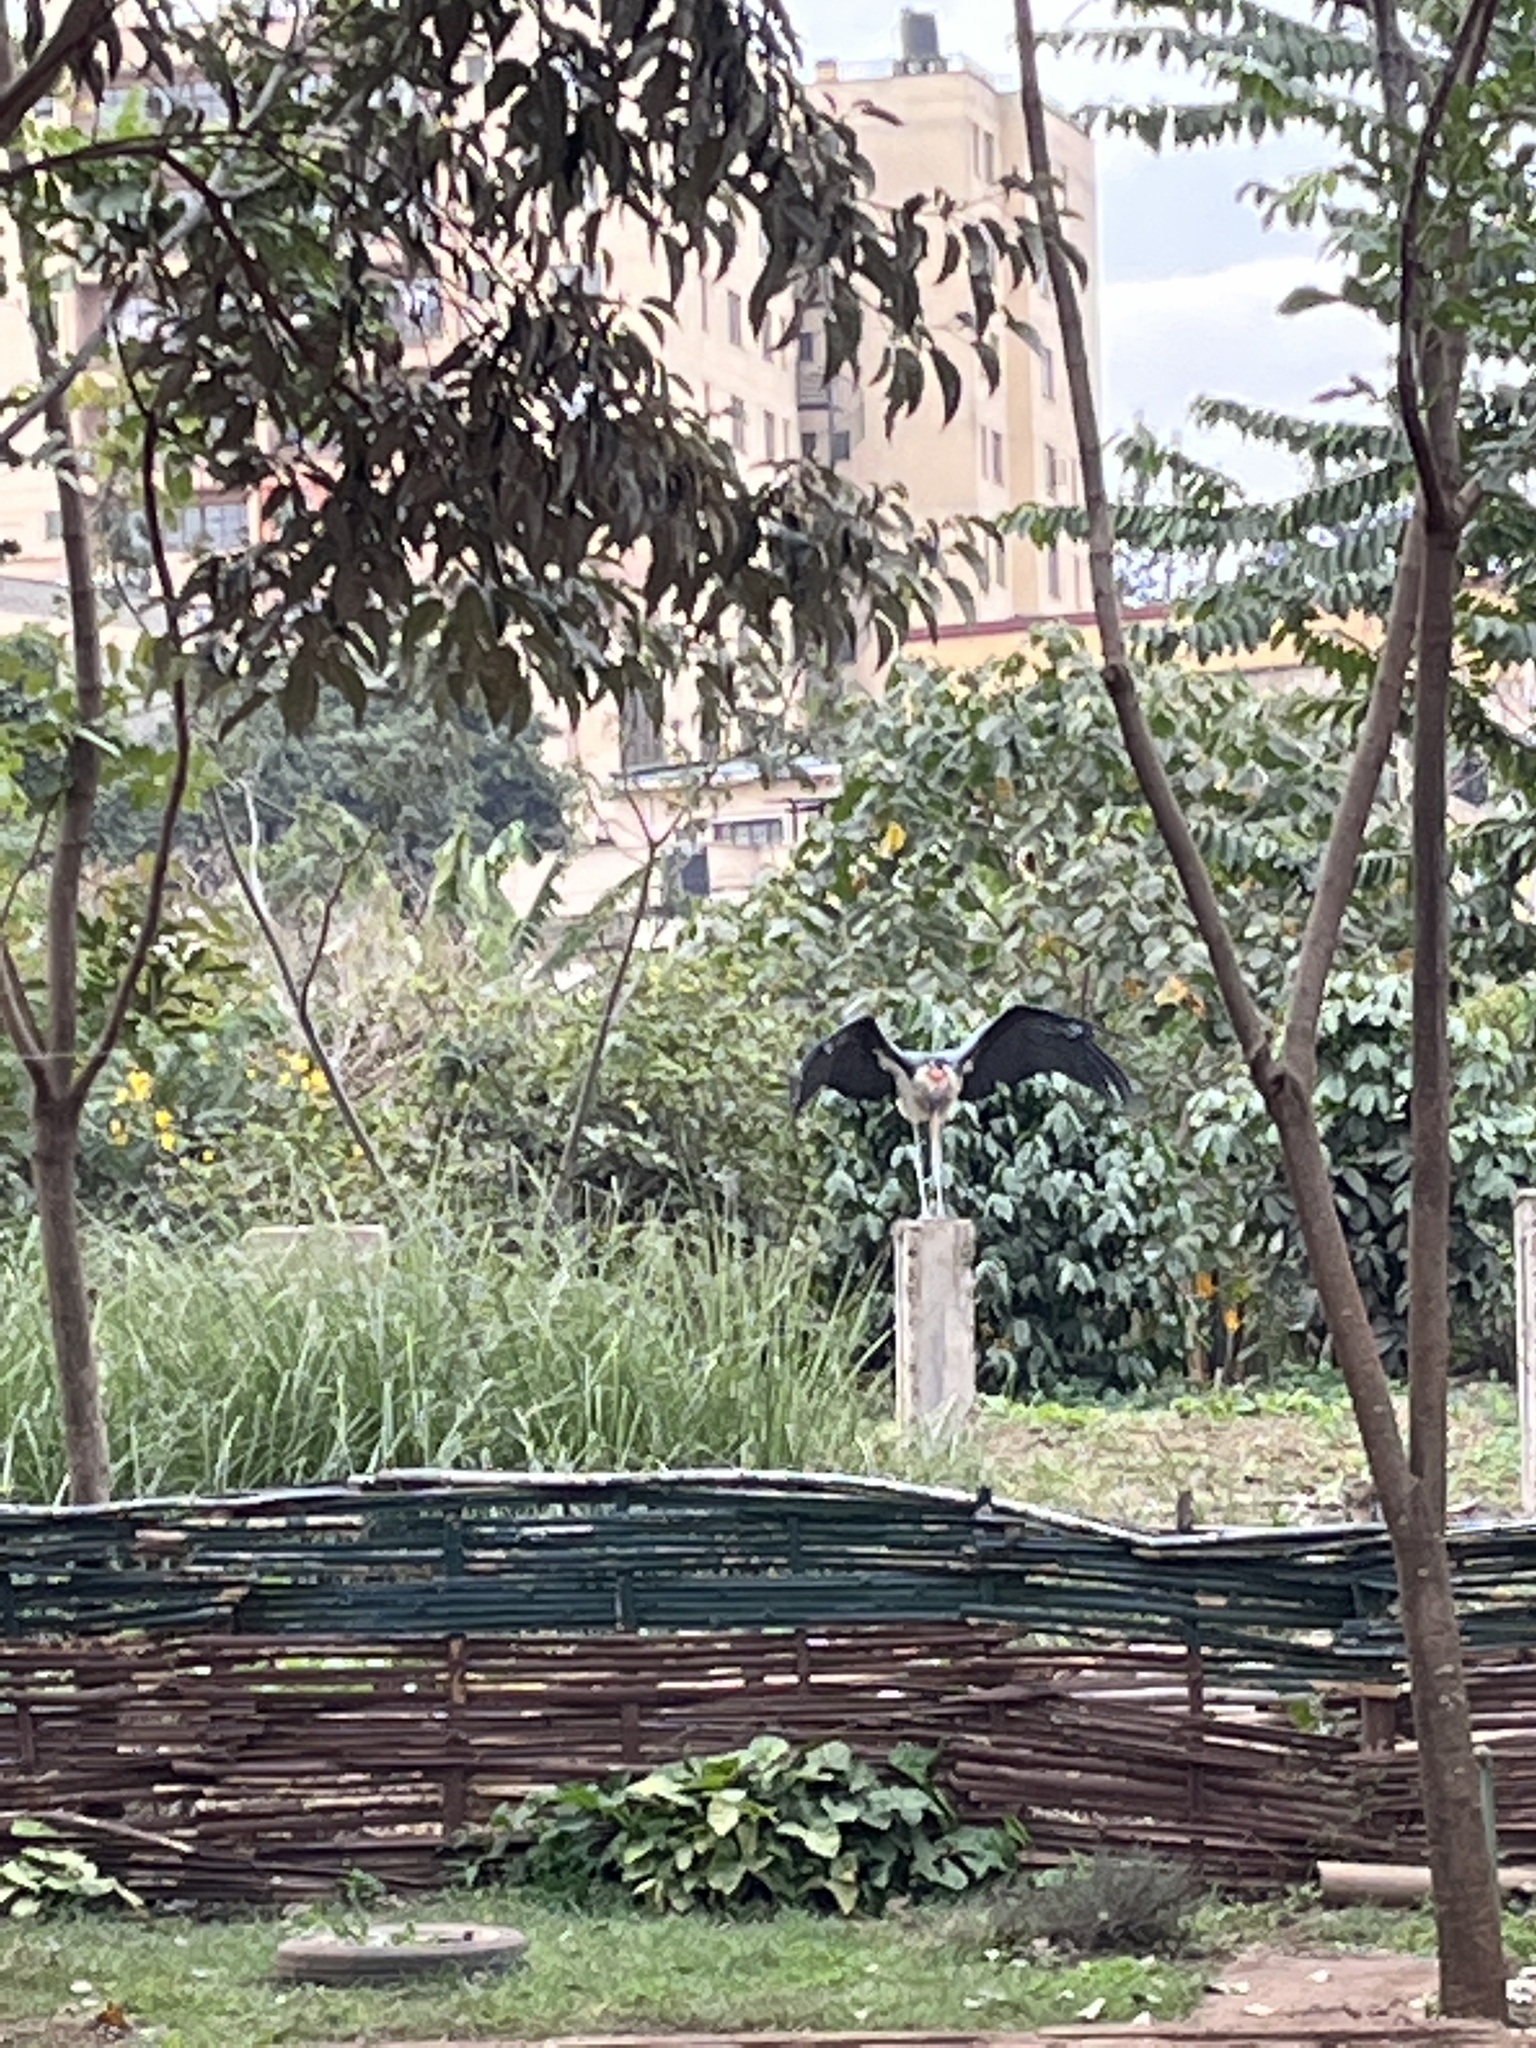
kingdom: Animalia
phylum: Chordata
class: Aves
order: Ciconiiformes
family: Ciconiidae
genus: Leptoptilos
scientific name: Leptoptilos crumenifer
